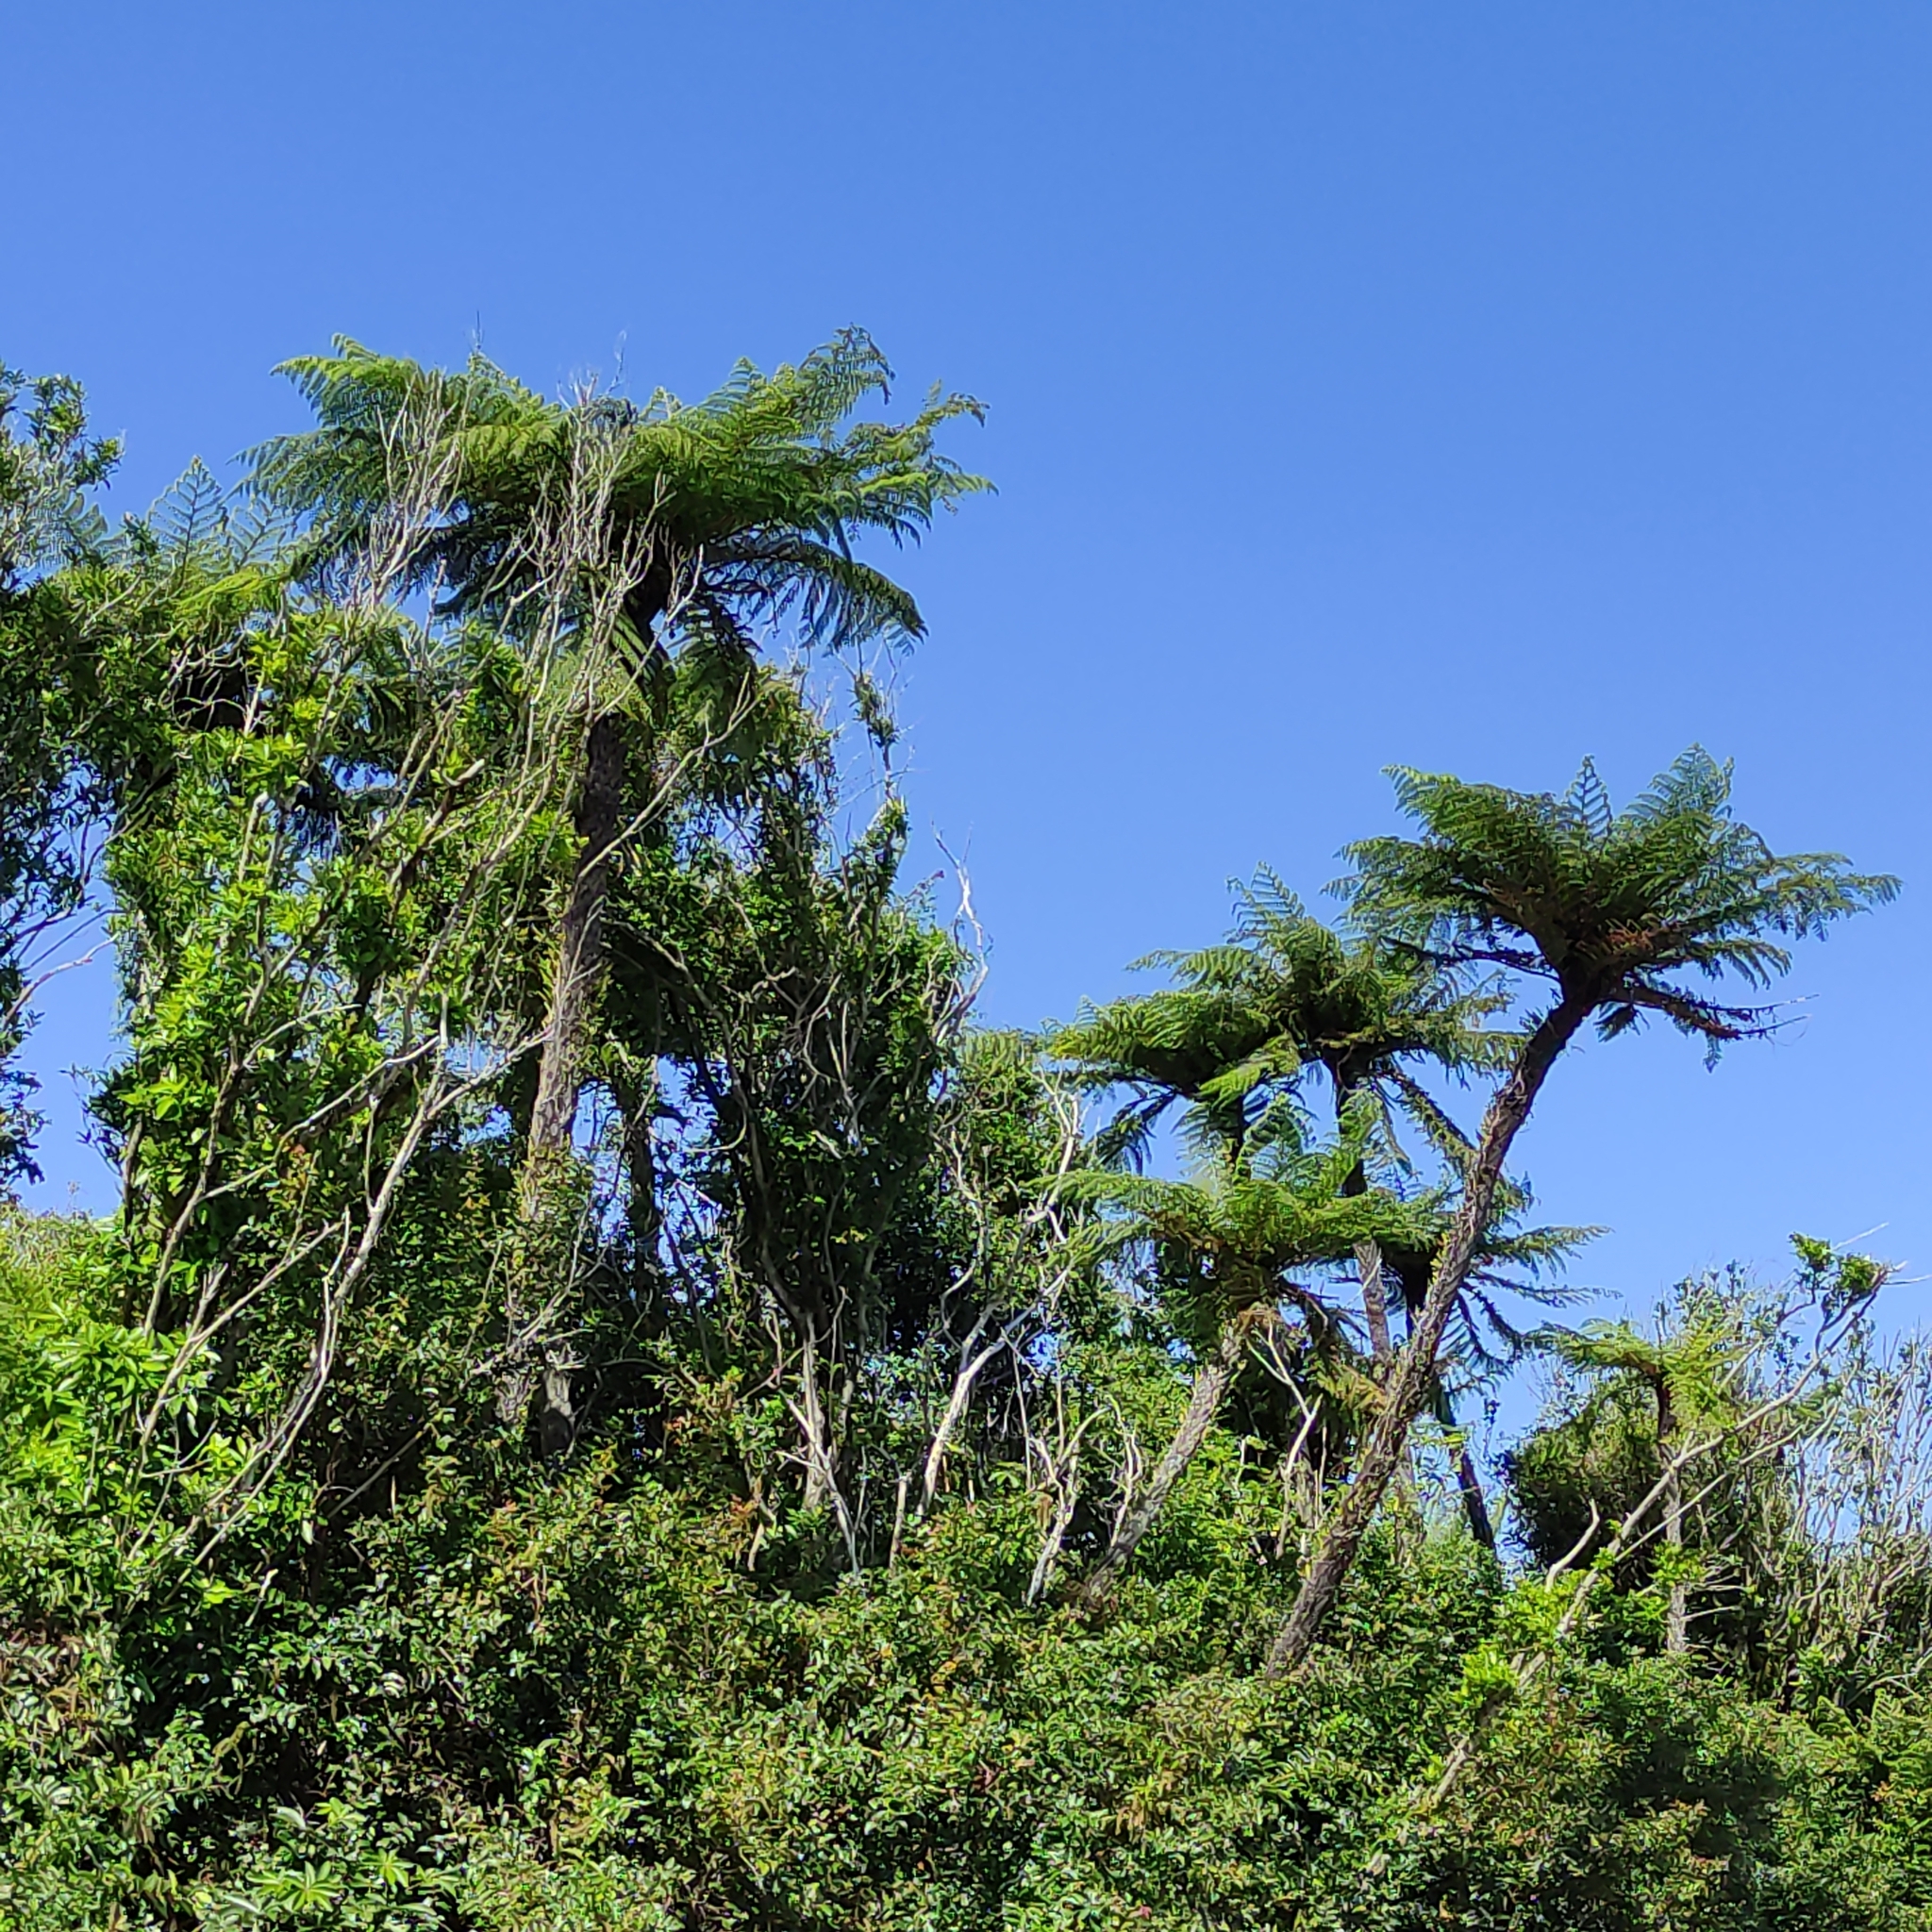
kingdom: Plantae
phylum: Tracheophyta
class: Polypodiopsida
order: Cyatheales
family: Cyatheaceae
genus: Sphaeropteris
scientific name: Sphaeropteris medullaris
